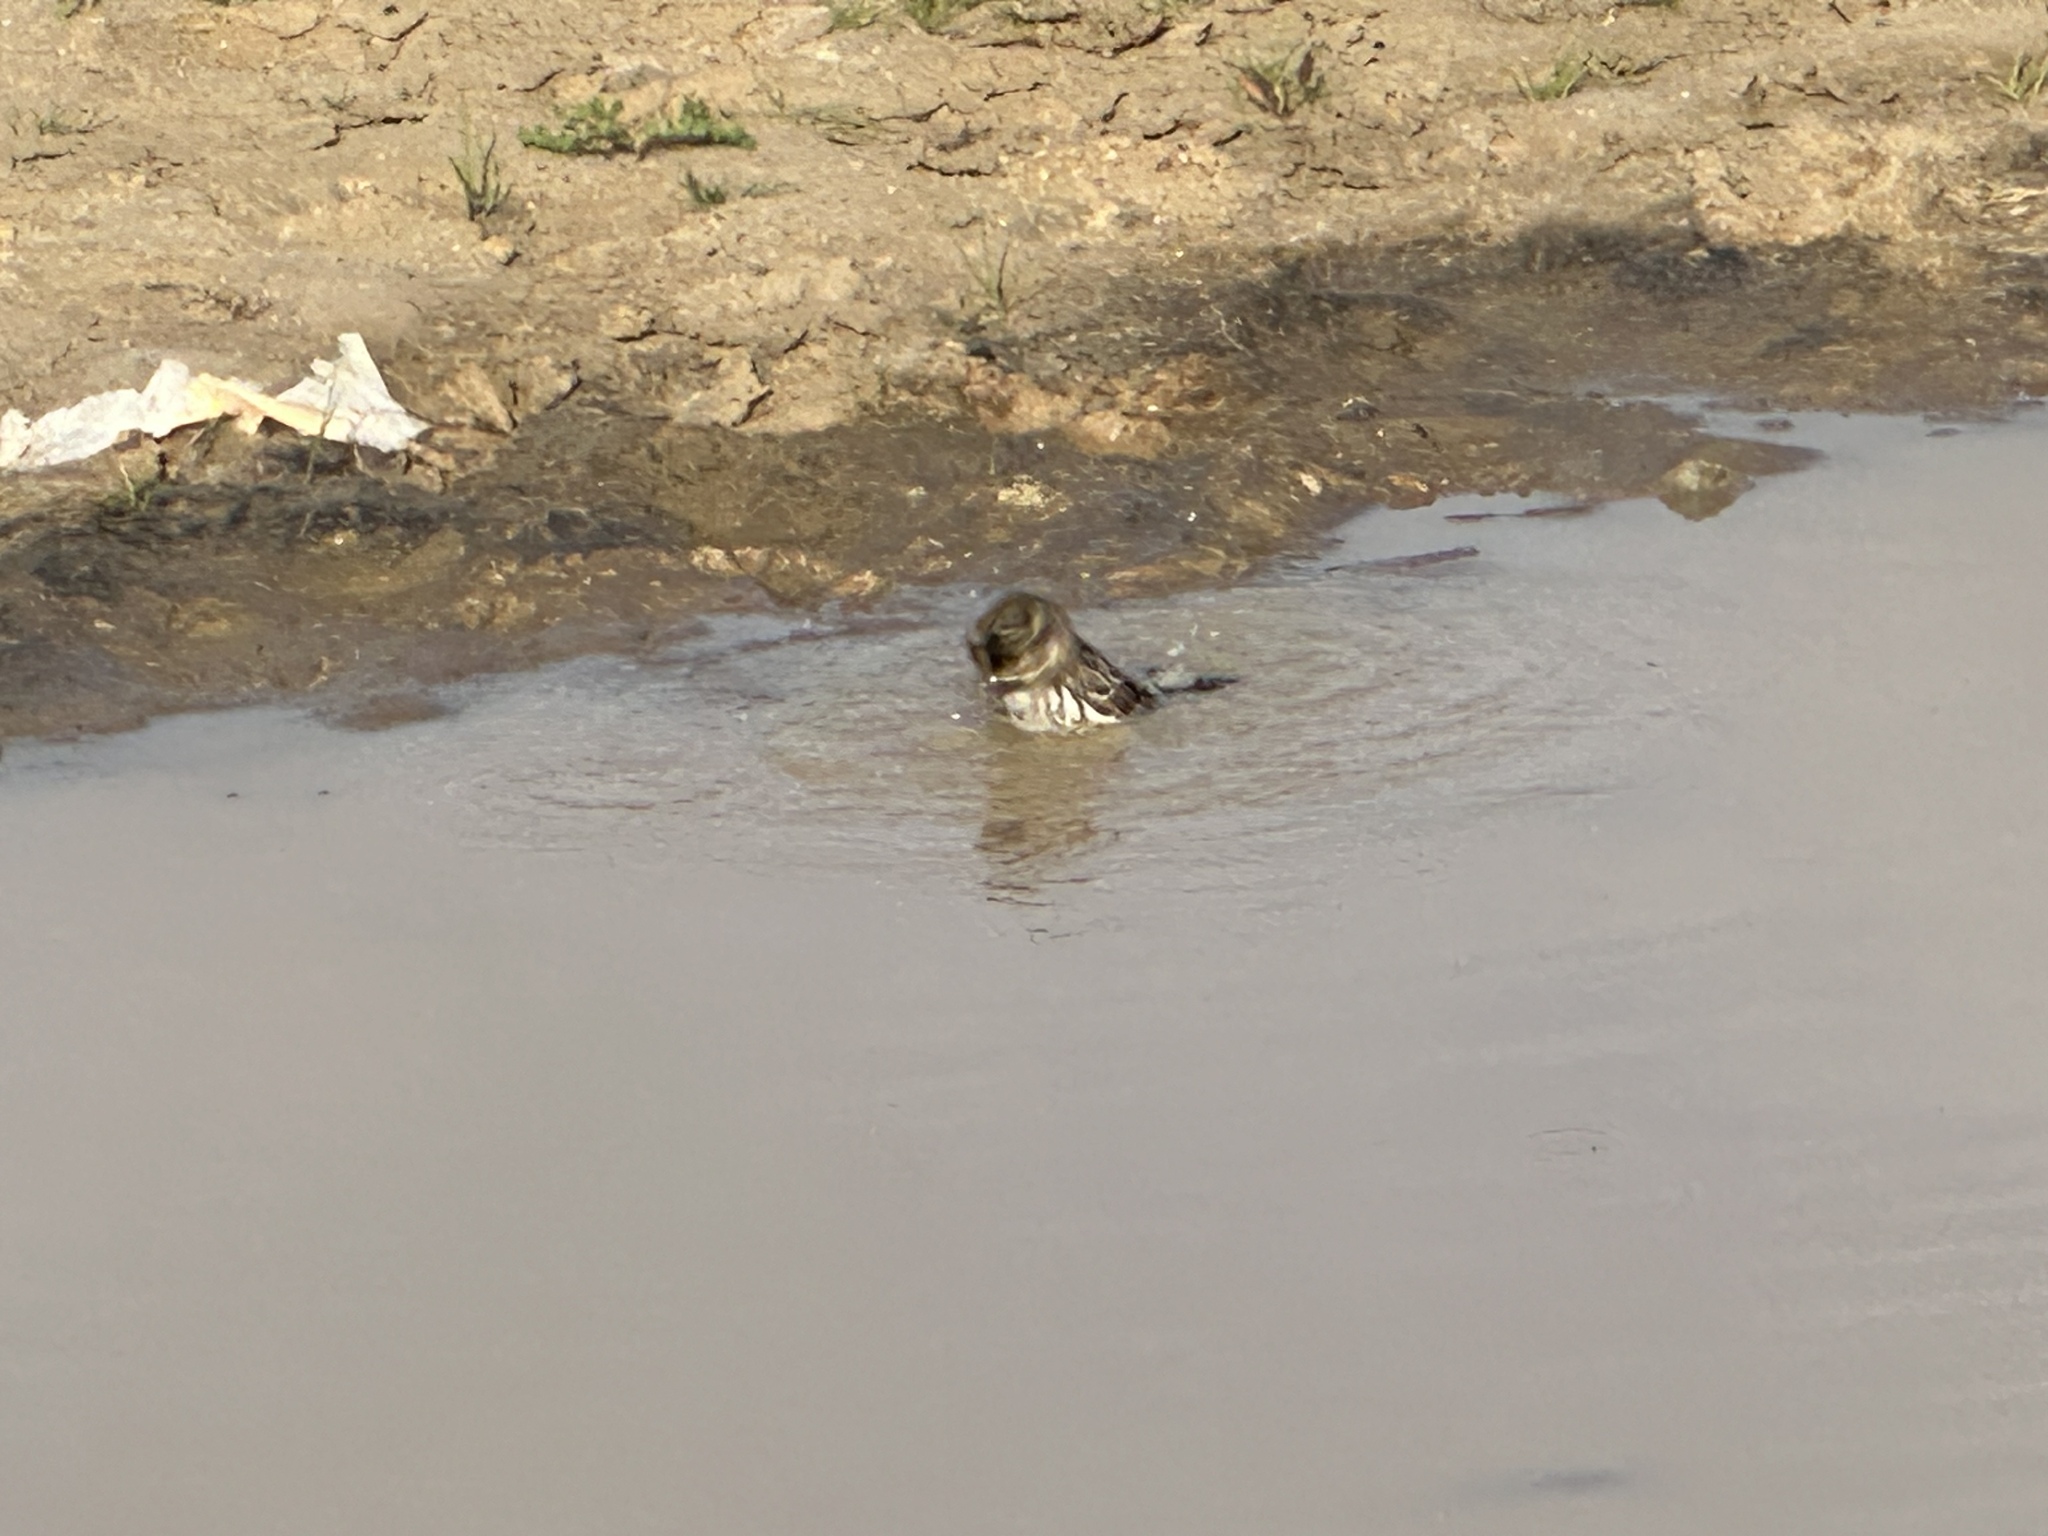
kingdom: Animalia
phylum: Chordata
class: Aves
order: Passeriformes
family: Passerellidae
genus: Passerculus
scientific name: Passerculus sandwichensis
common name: Savannah sparrow
